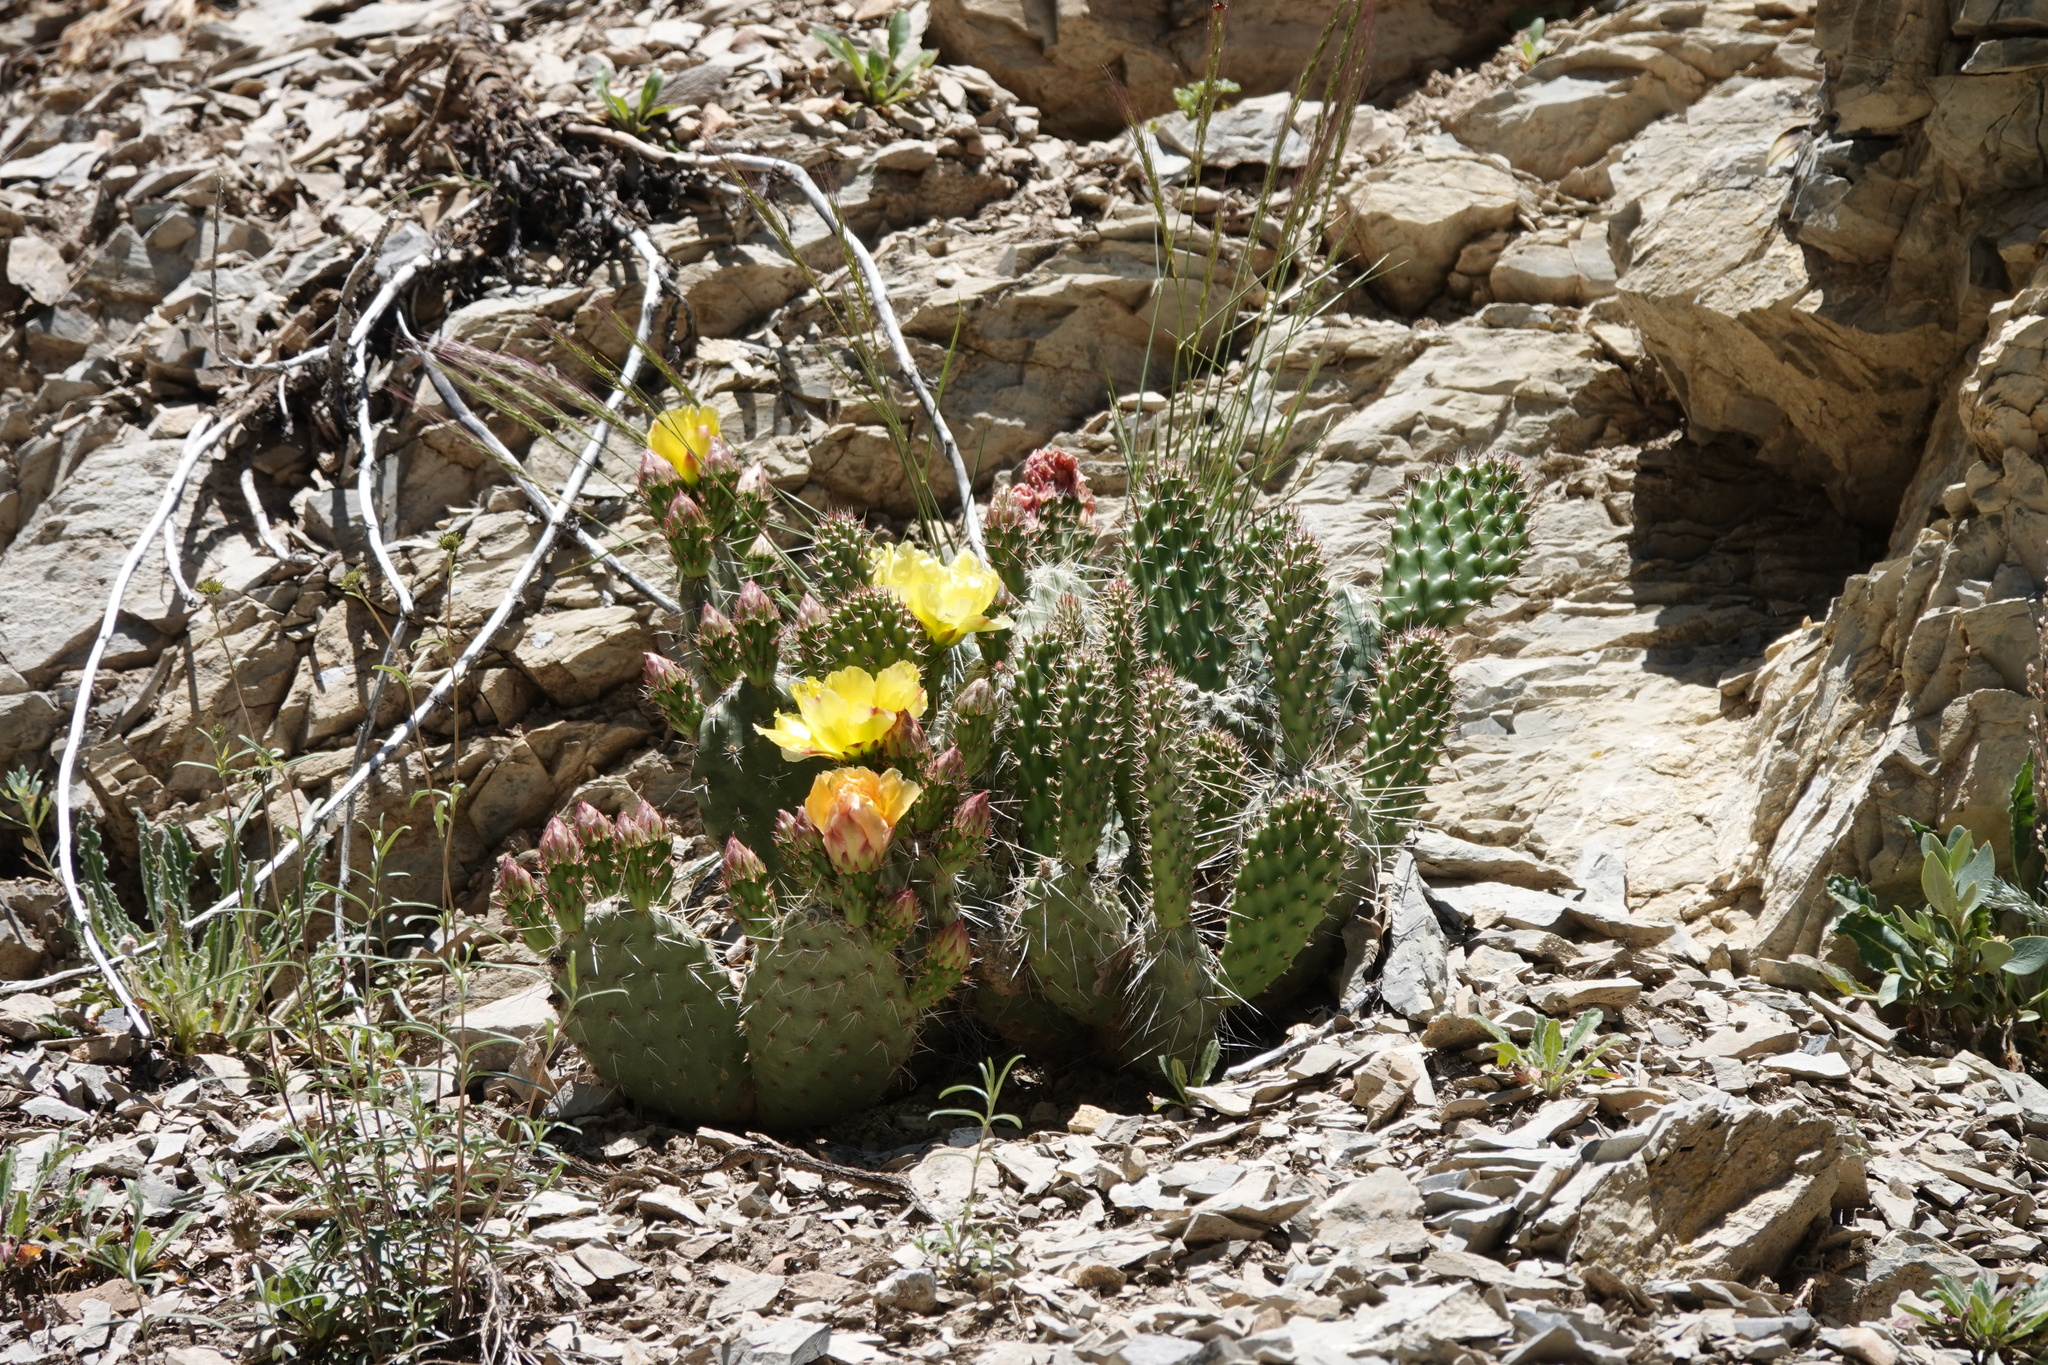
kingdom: Plantae
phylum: Tracheophyta
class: Magnoliopsida
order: Caryophyllales
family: Cactaceae
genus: Opuntia
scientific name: Opuntia polyacantha
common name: Plains prickly-pear
